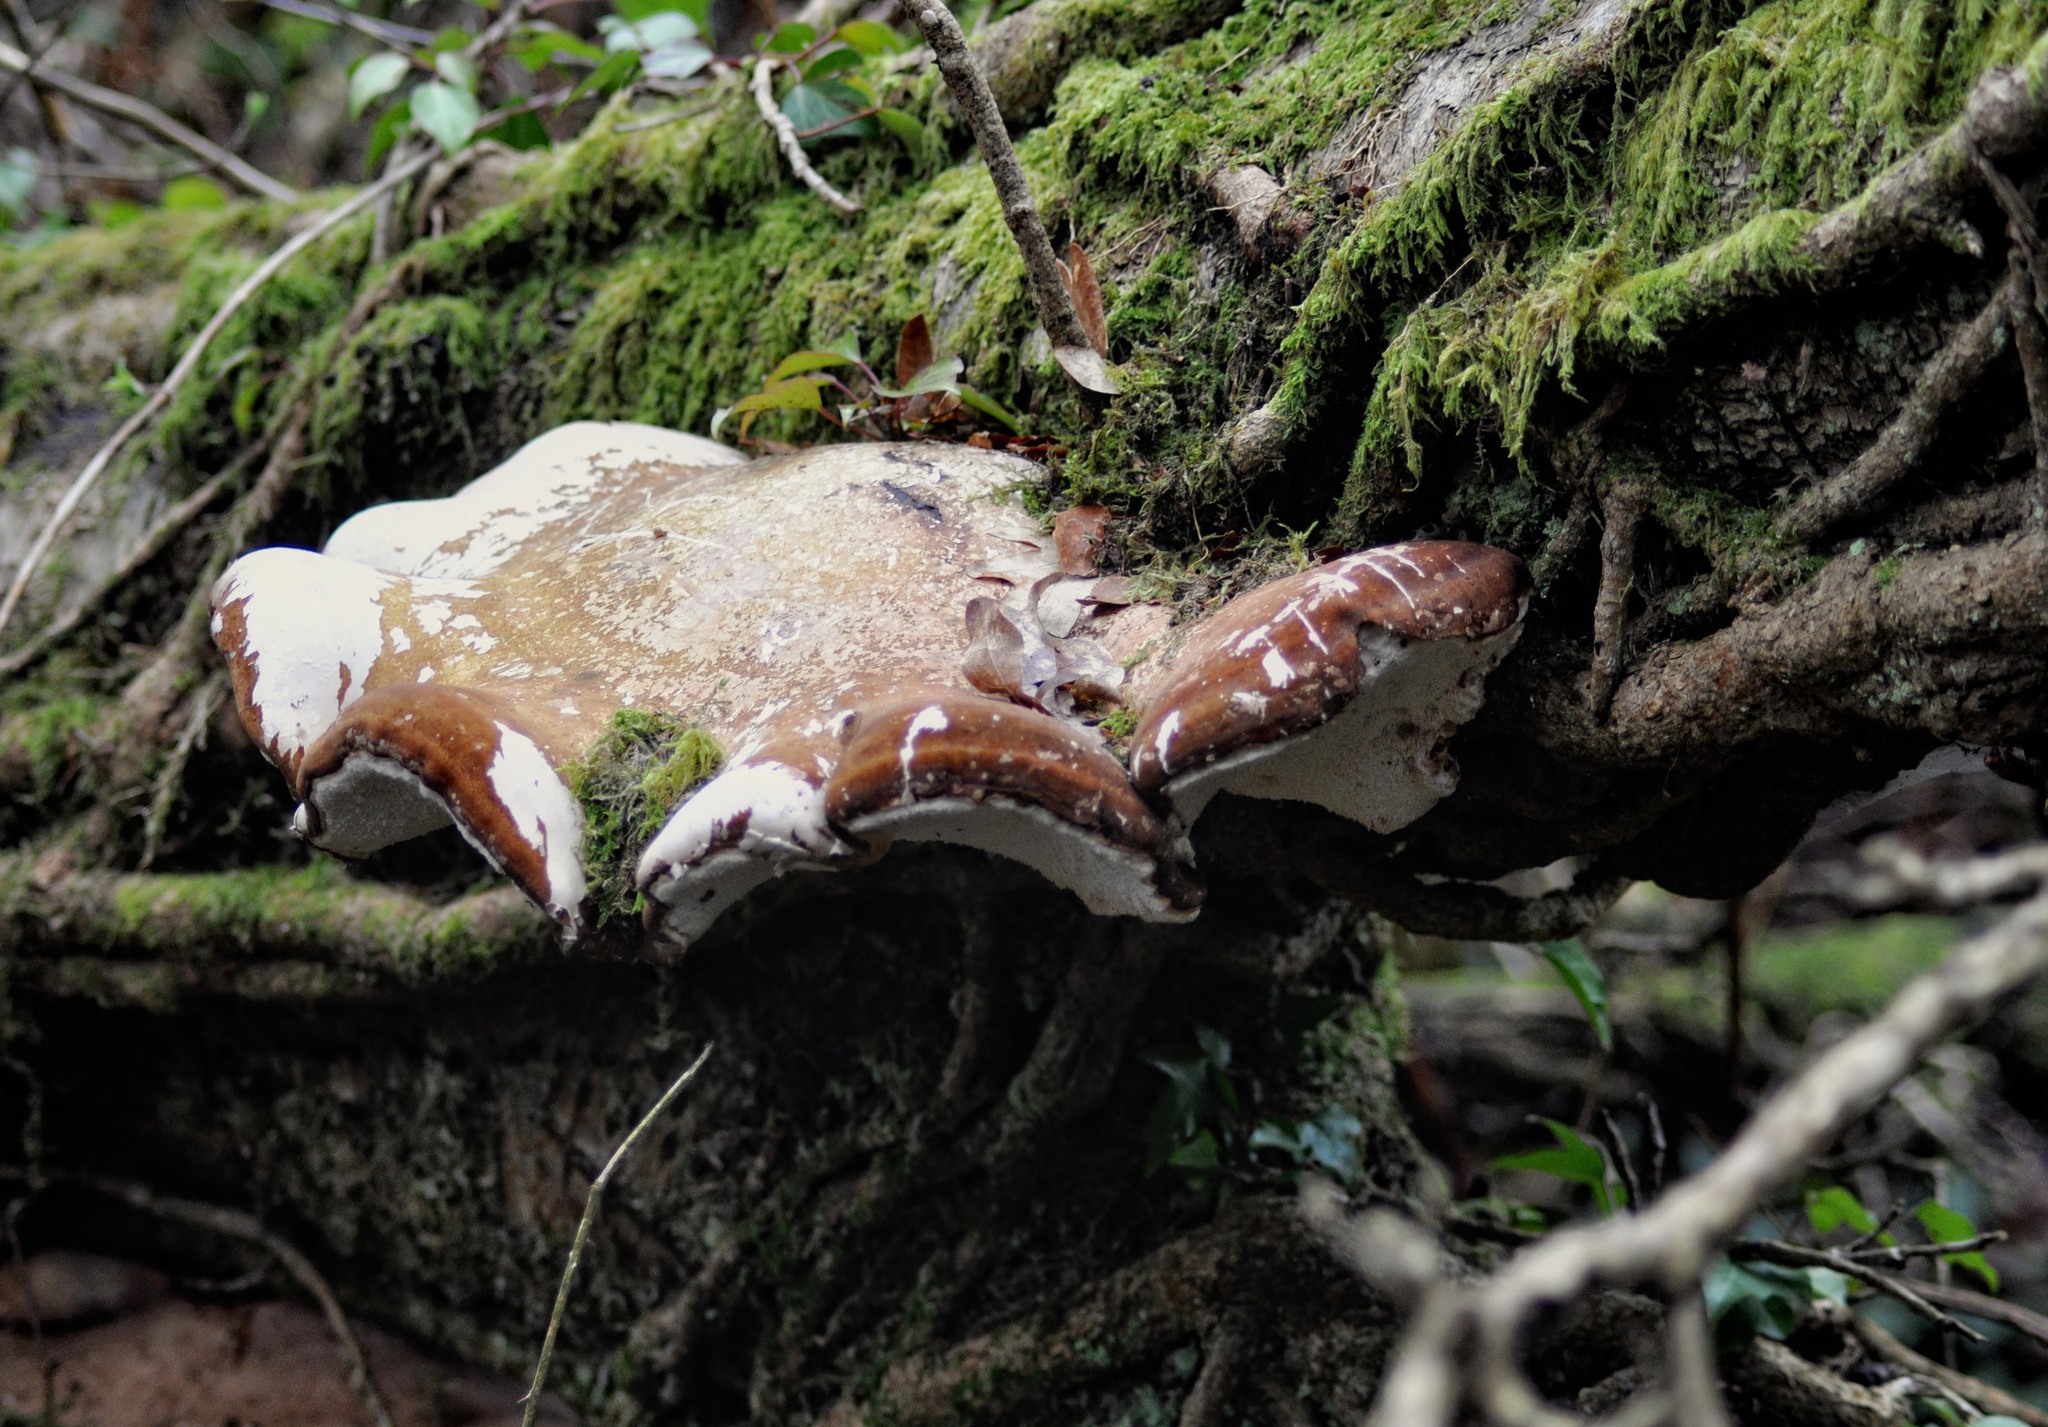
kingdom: Fungi
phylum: Basidiomycota
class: Agaricomycetes
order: Polyporales
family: Fomitopsidaceae
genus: Fomitopsis
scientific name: Fomitopsis betulina
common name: Birch polypore
